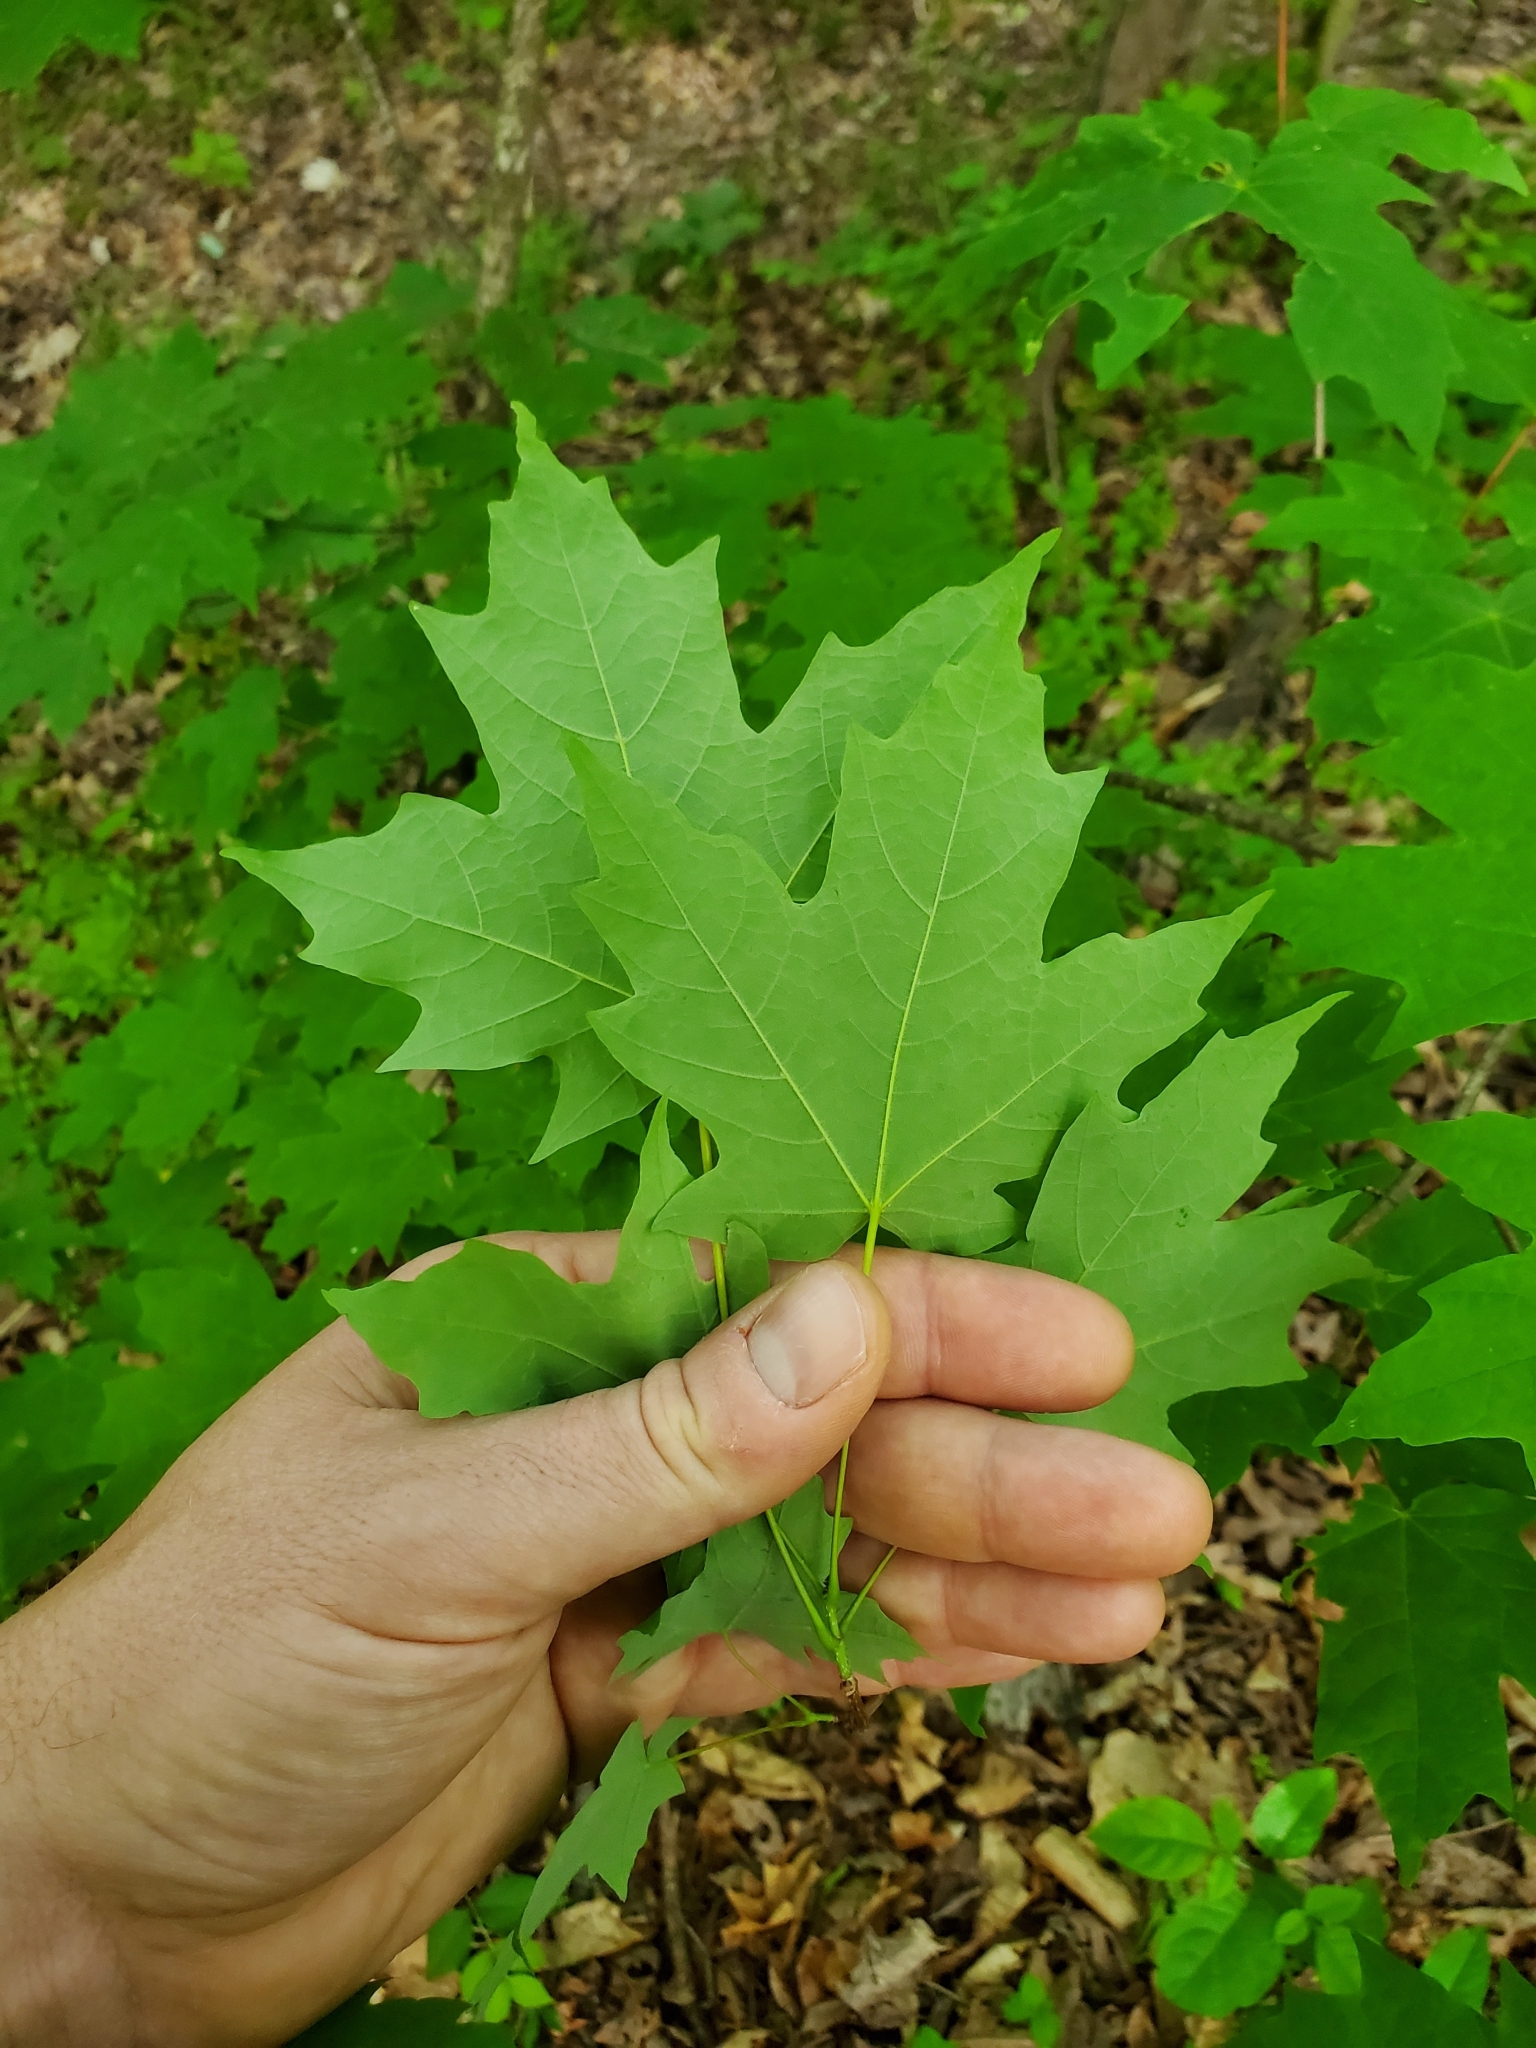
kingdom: Plantae
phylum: Tracheophyta
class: Magnoliopsida
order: Sapindales
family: Sapindaceae
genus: Acer
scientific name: Acer saccharum
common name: Sugar maple
